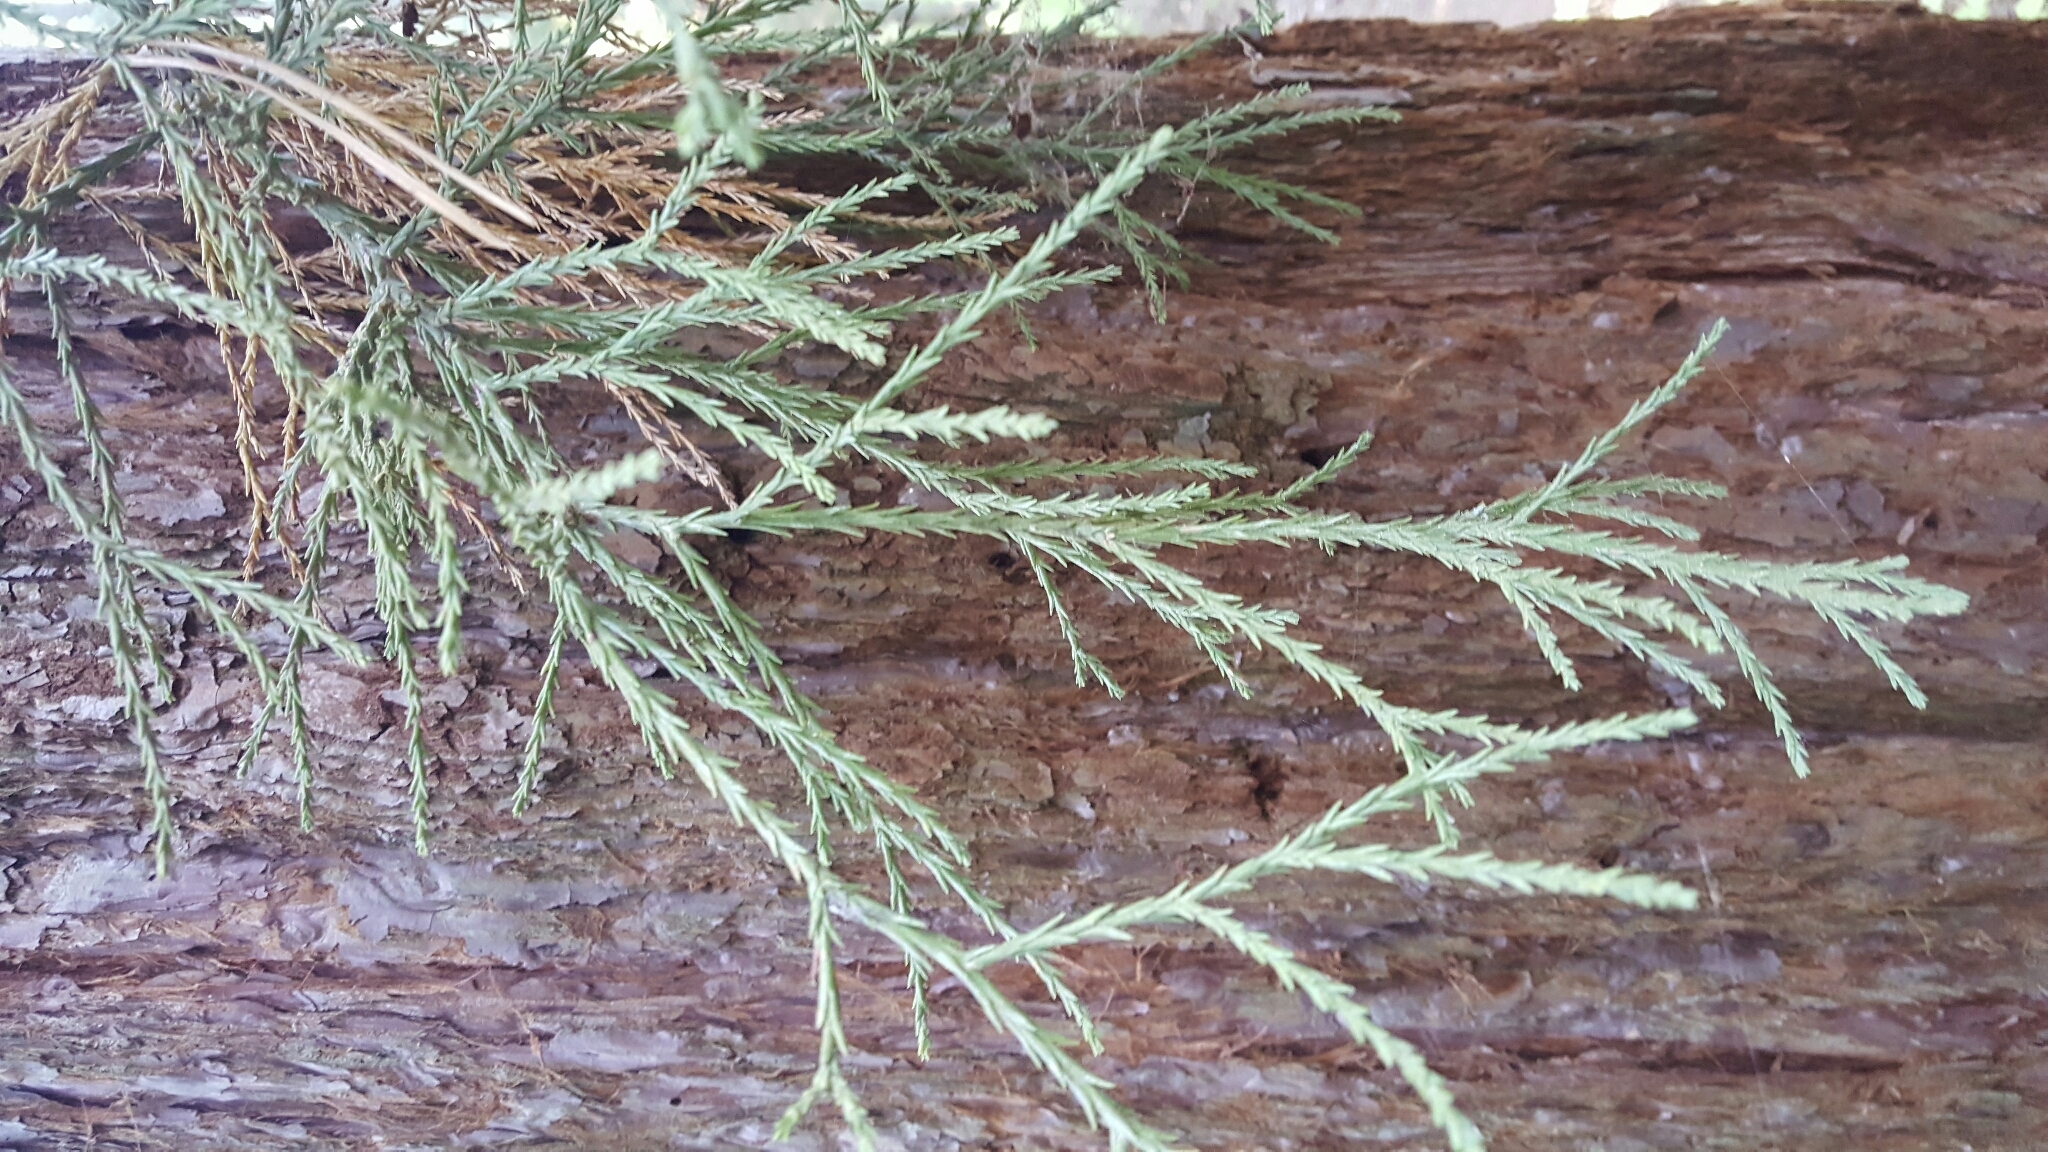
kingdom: Plantae
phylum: Tracheophyta
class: Pinopsida
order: Pinales
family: Cupressaceae
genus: Sequoiadendron
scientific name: Sequoiadendron giganteum
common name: Wellingtonia
